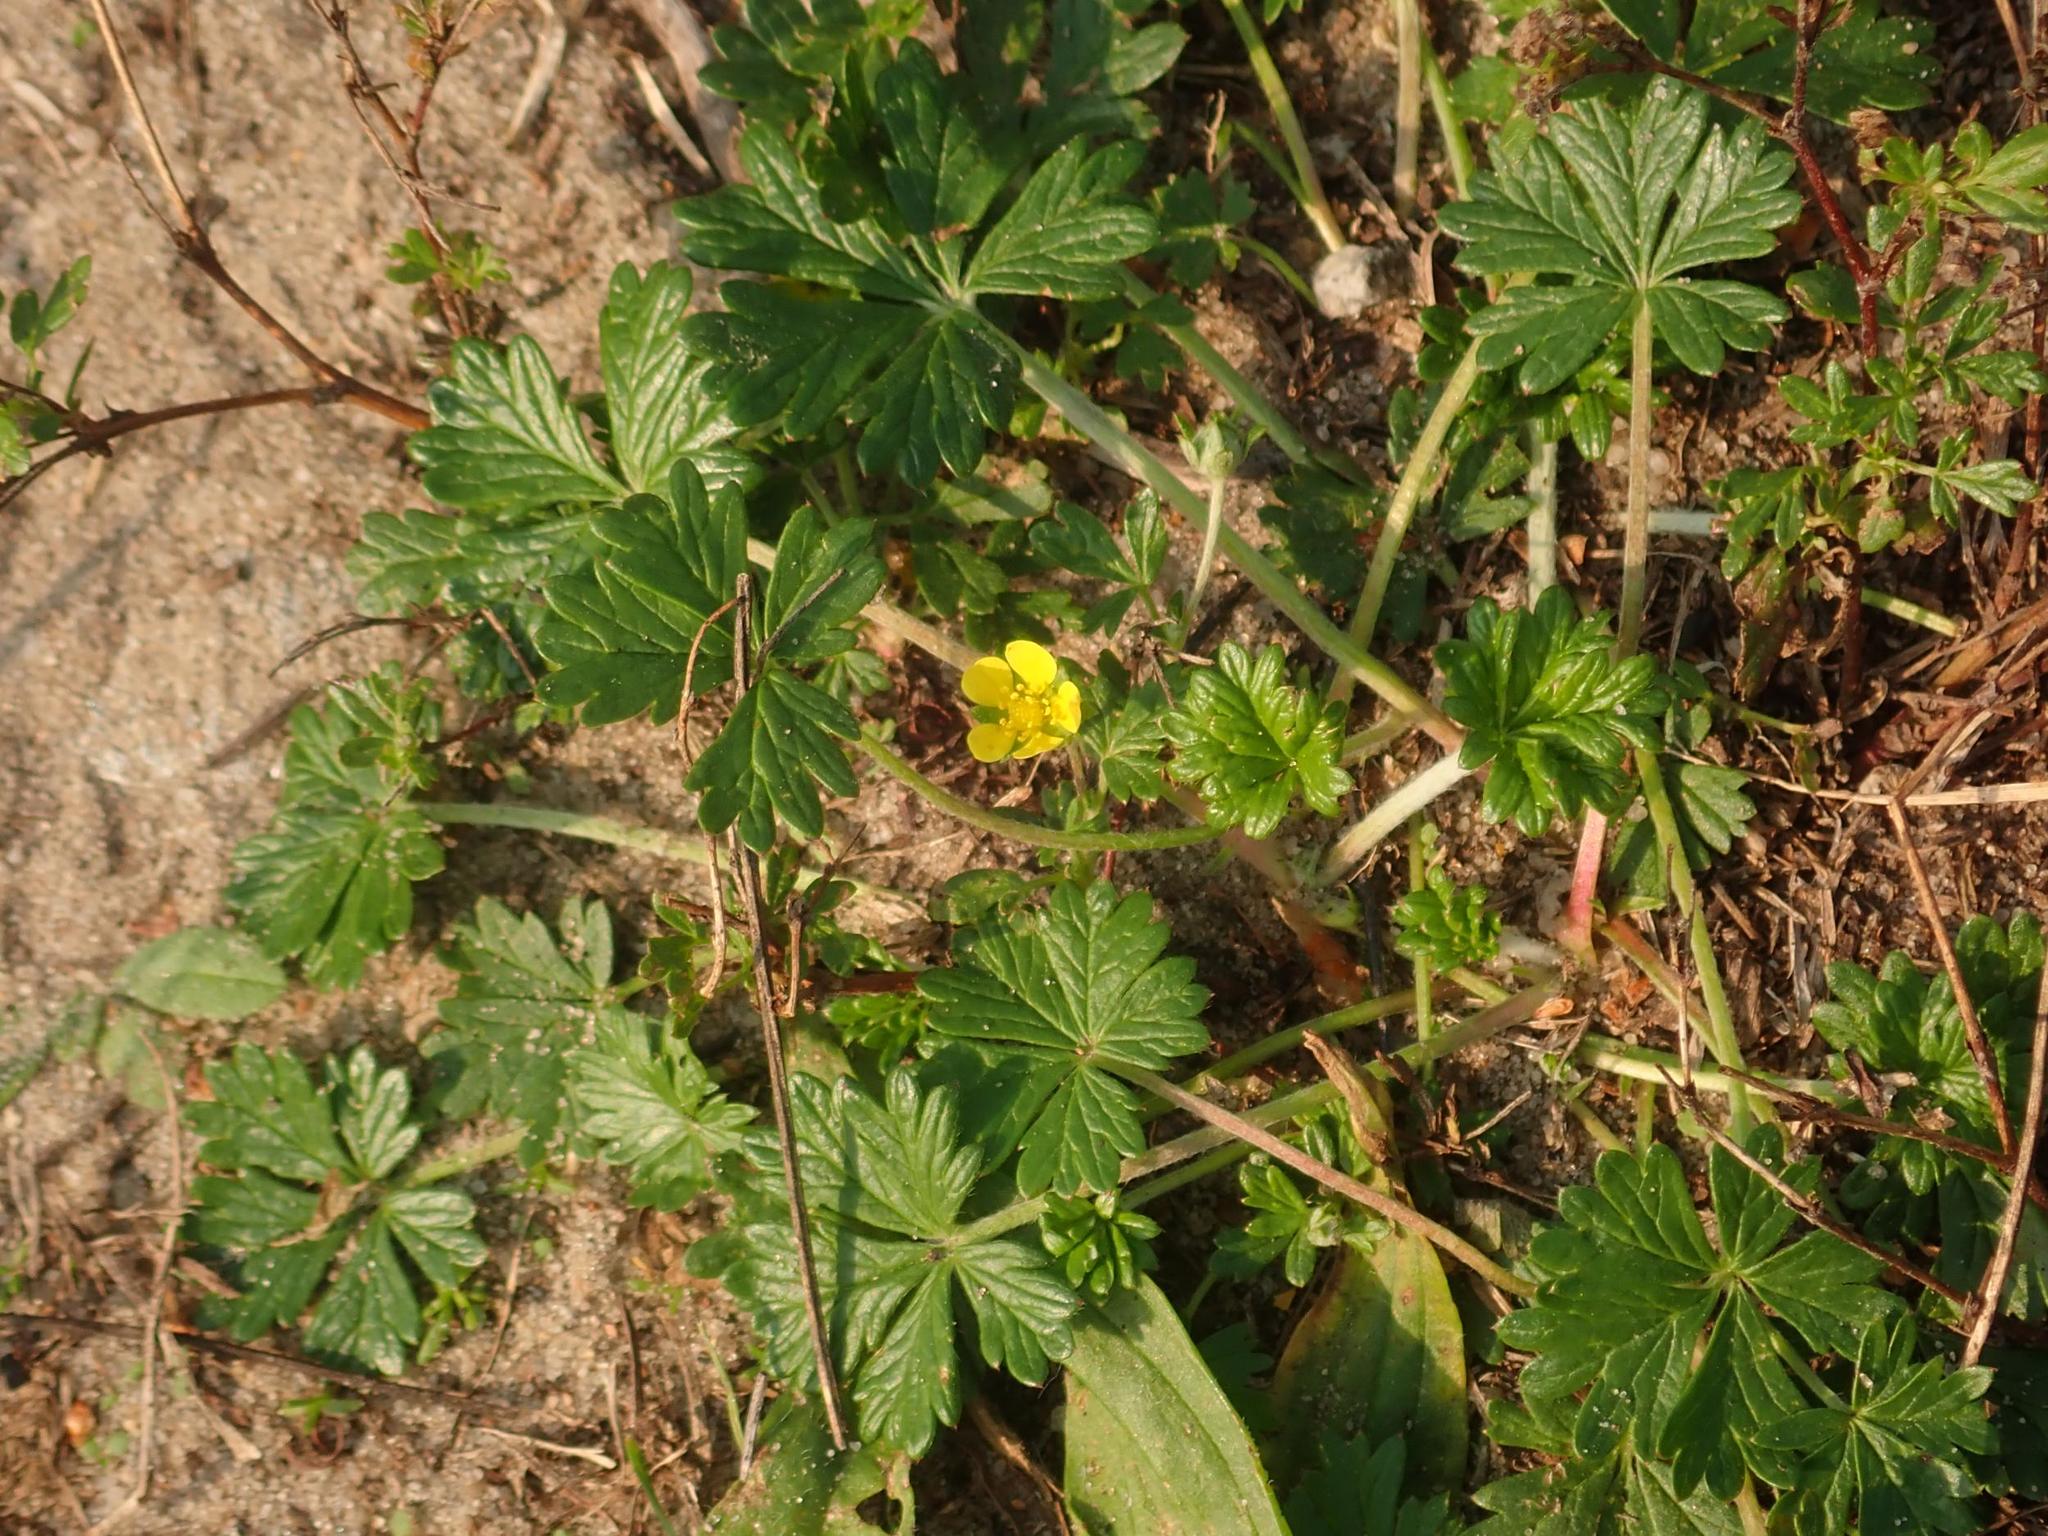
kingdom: Plantae
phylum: Tracheophyta
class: Magnoliopsida
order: Rosales
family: Rosaceae
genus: Potentilla
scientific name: Potentilla argentea
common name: Hoary cinquefoil
